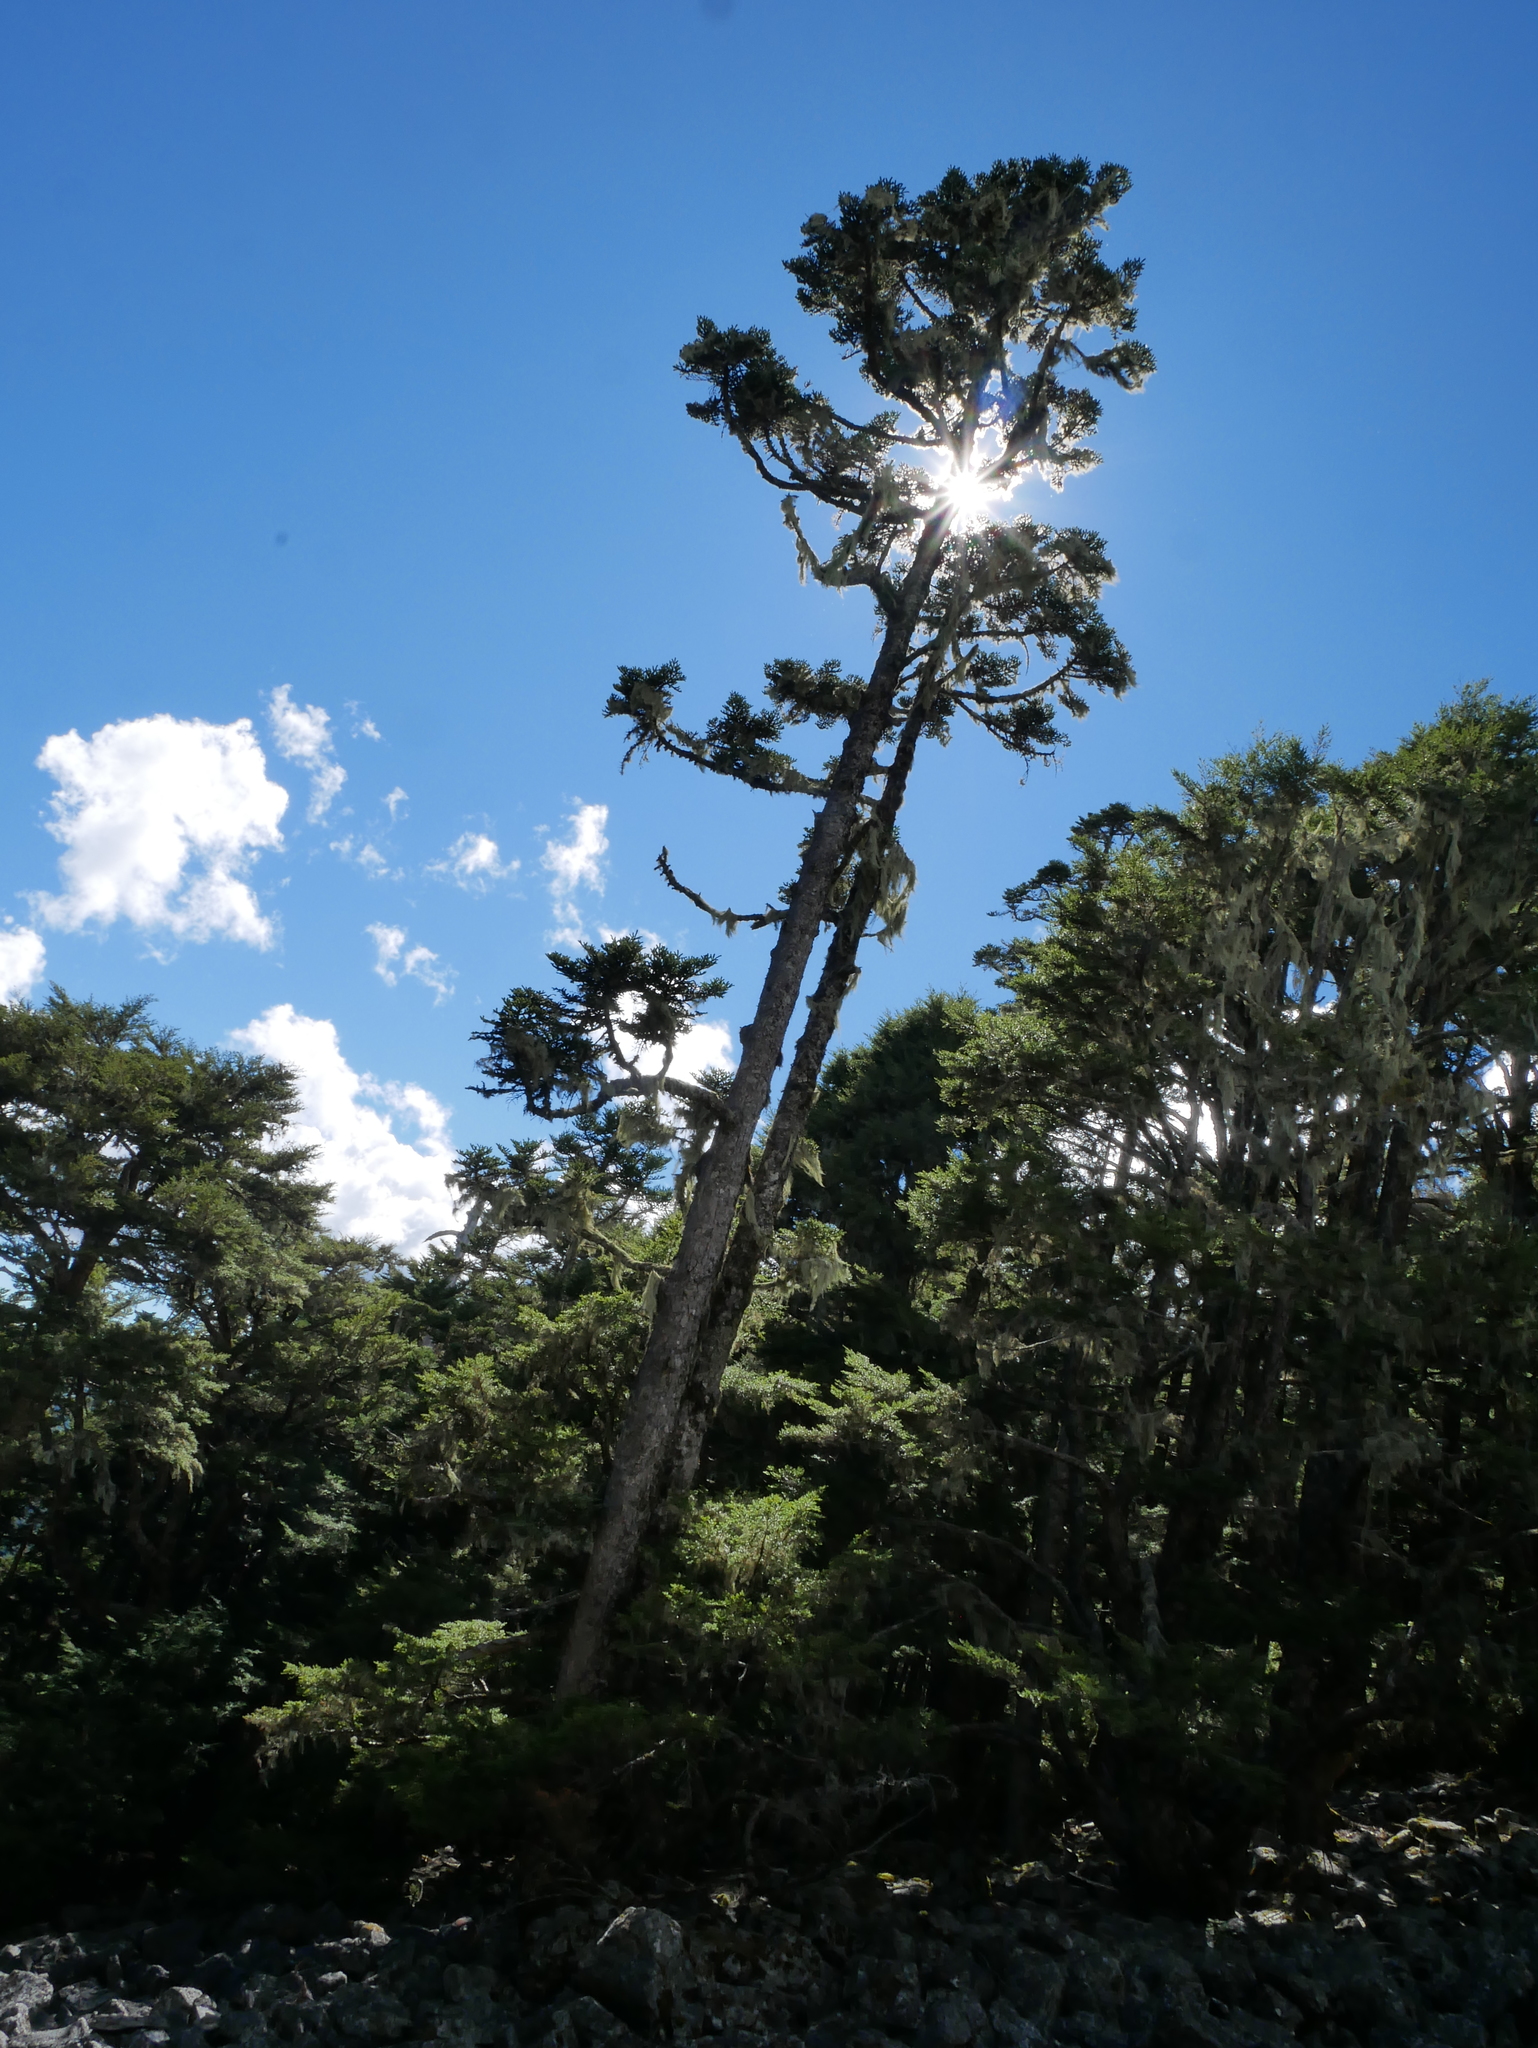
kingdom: Plantae
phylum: Tracheophyta
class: Pinopsida
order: Pinales
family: Pinaceae
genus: Abies
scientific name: Abies kawakamii
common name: Taiwan fir
